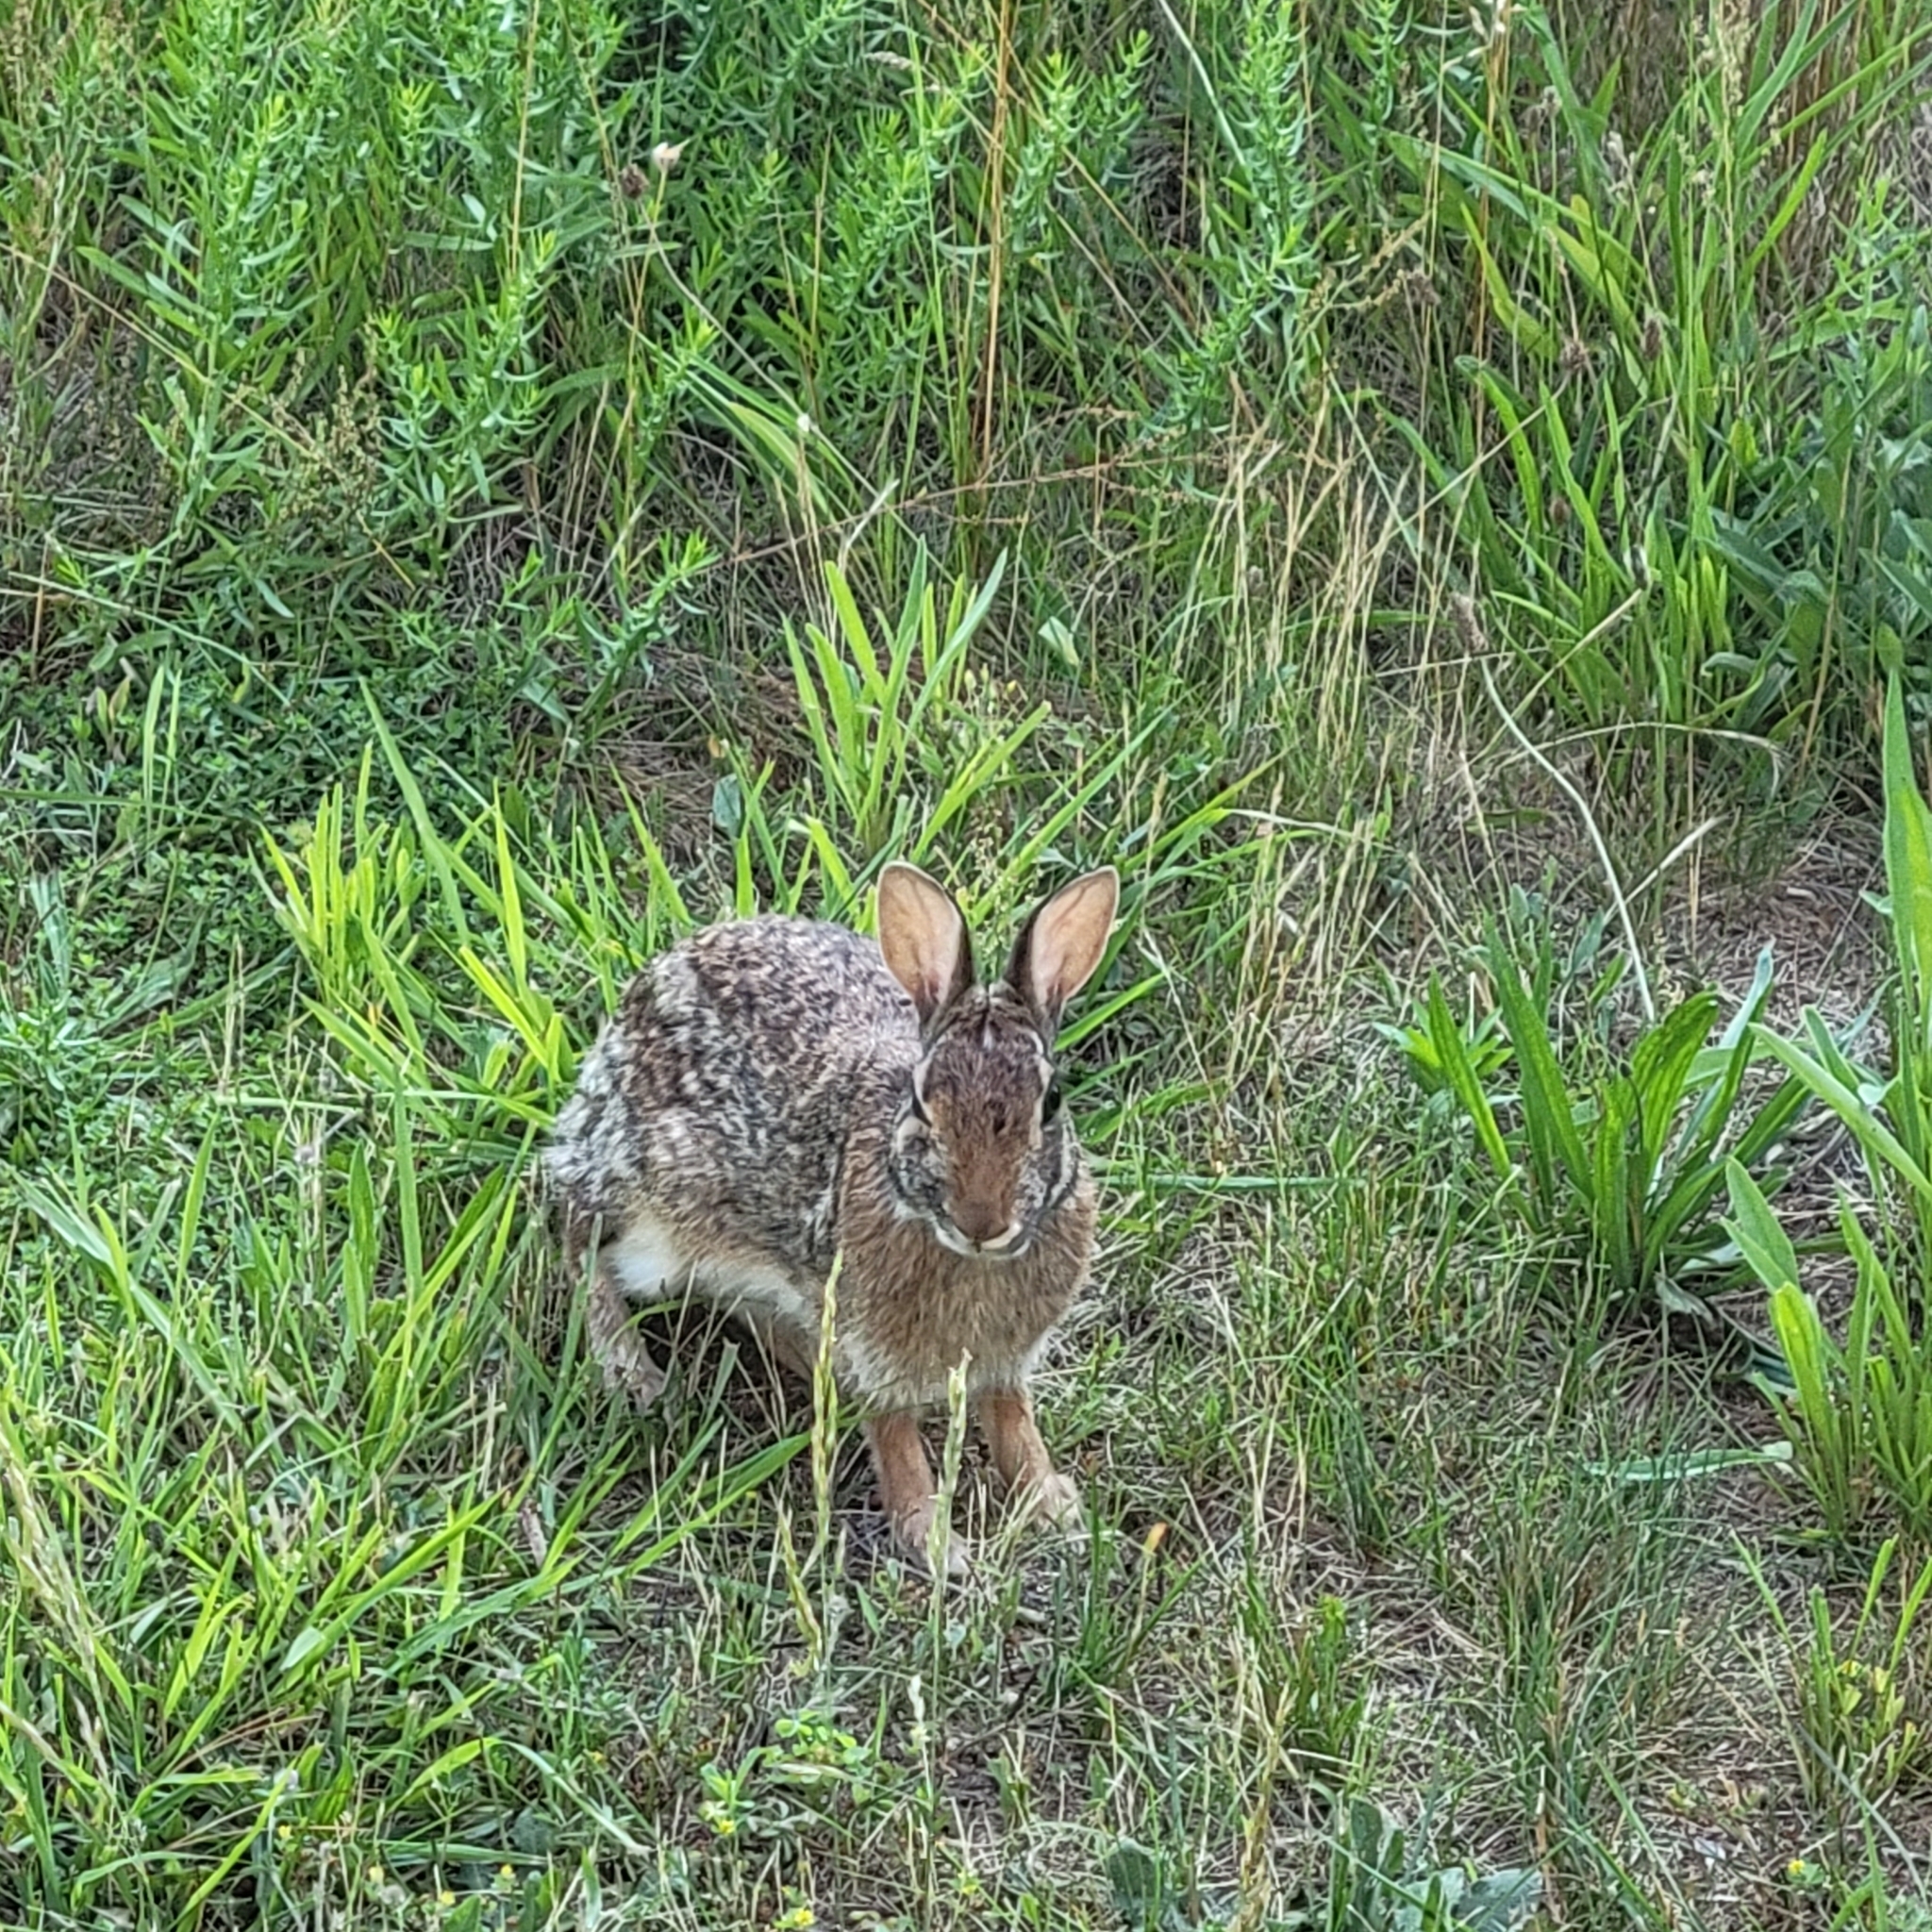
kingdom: Animalia
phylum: Chordata
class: Mammalia
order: Lagomorpha
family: Leporidae
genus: Sylvilagus
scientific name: Sylvilagus floridanus
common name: Eastern cottontail
